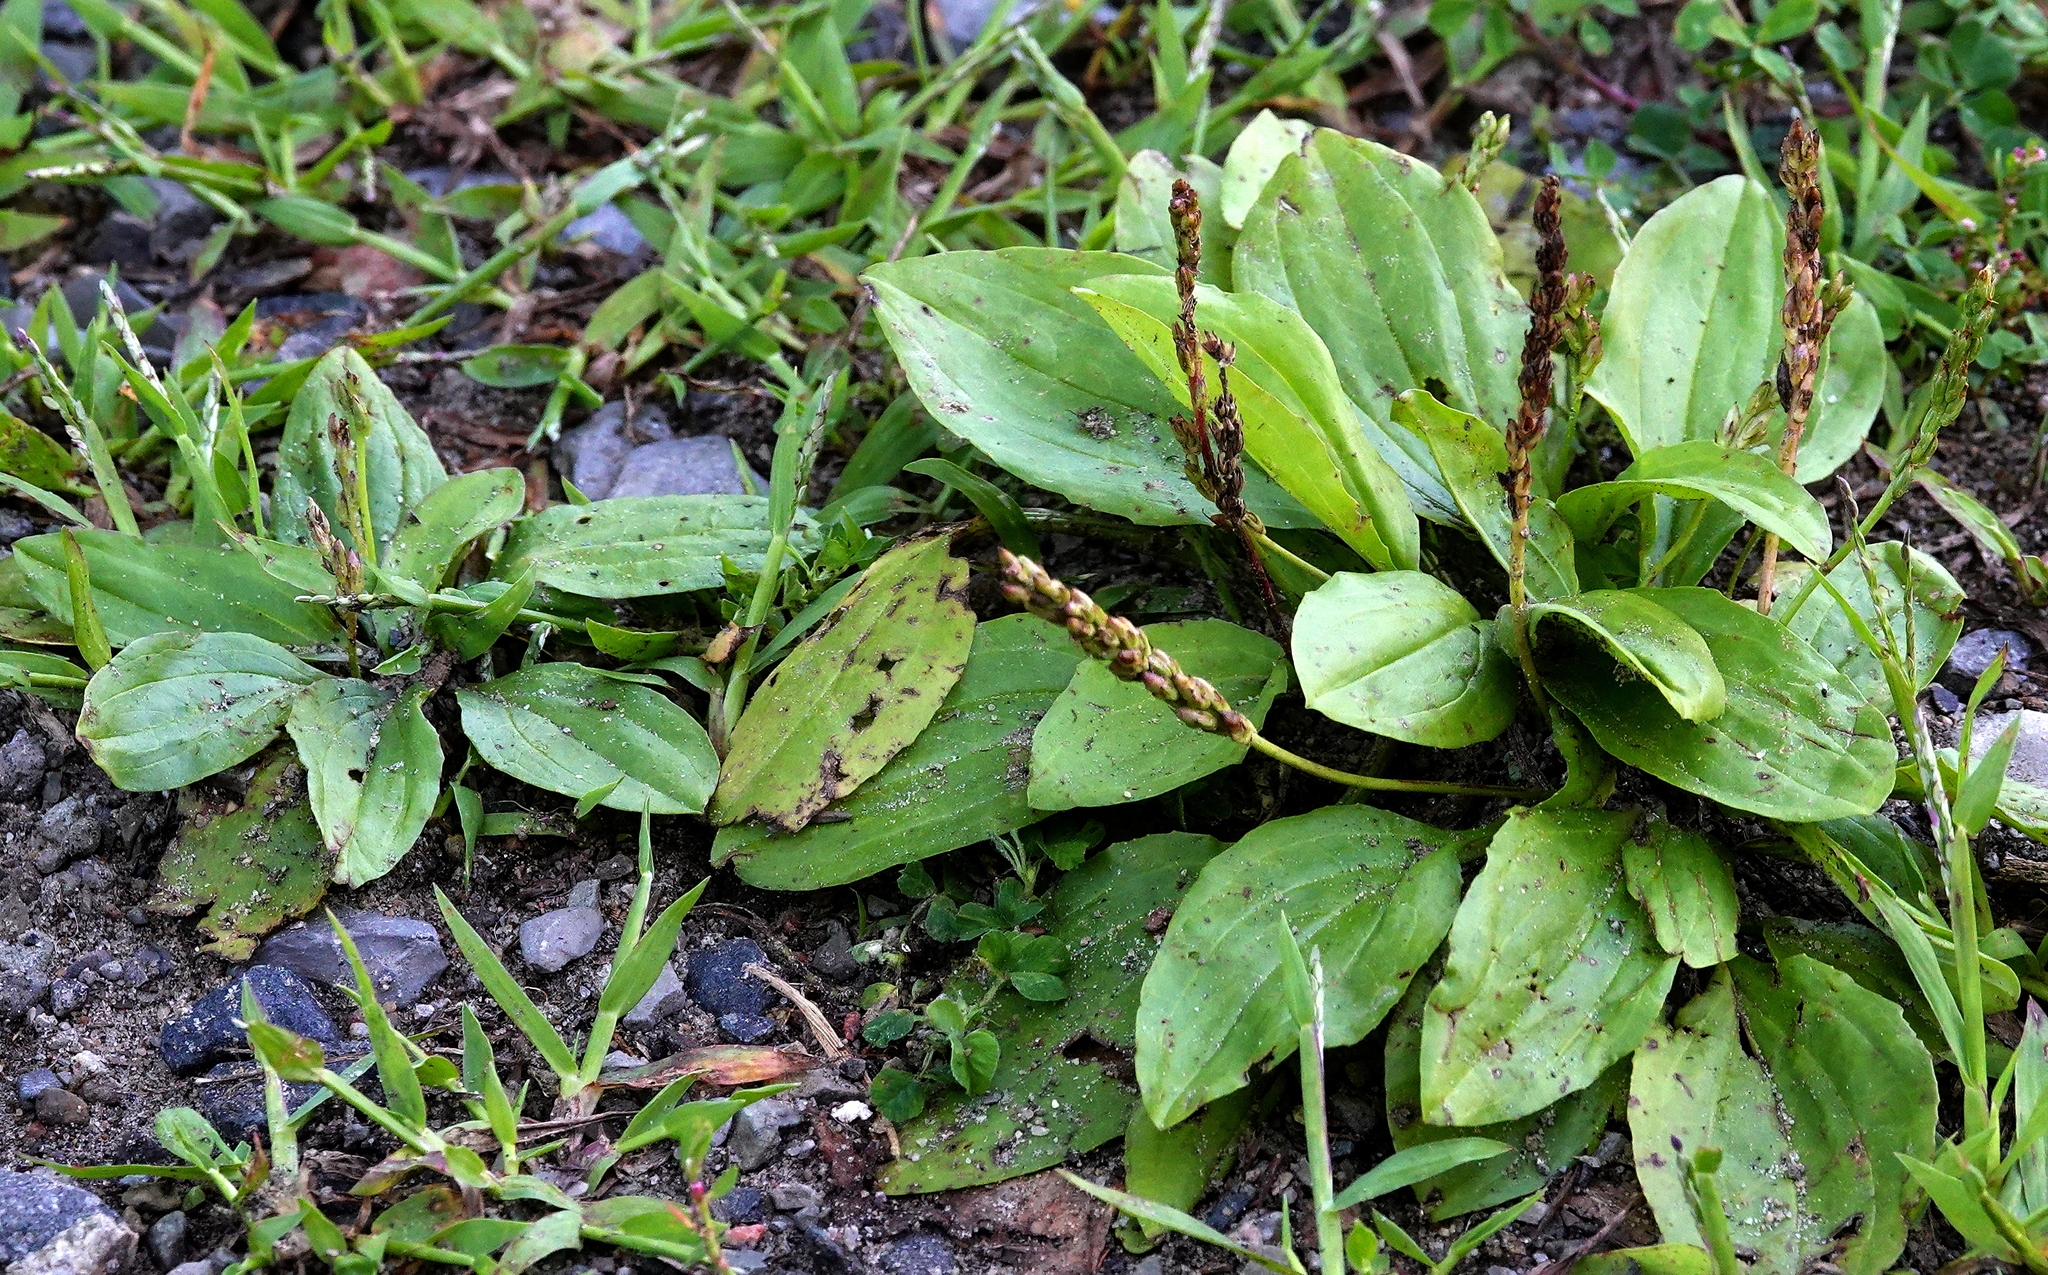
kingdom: Plantae
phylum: Tracheophyta
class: Magnoliopsida
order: Lamiales
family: Plantaginaceae
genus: Plantago
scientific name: Plantago major
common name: Common plantain
